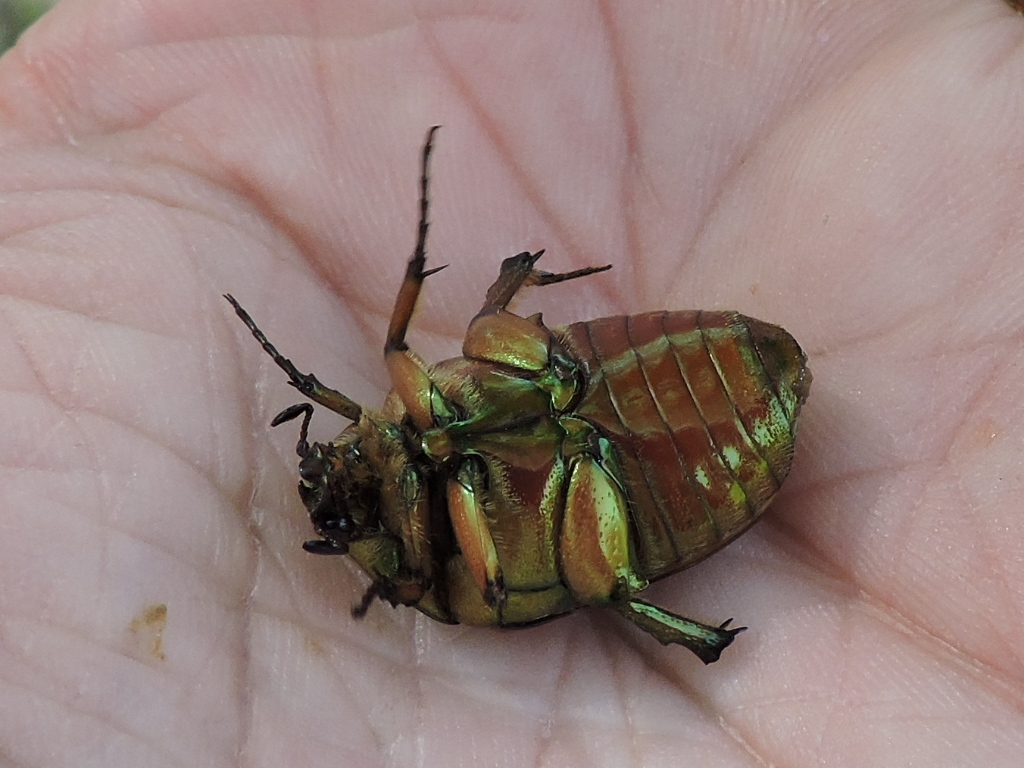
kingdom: Animalia
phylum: Arthropoda
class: Insecta
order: Coleoptera
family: Scarabaeidae
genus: Cotinis
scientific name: Cotinis nitida
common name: Common green june beetle
